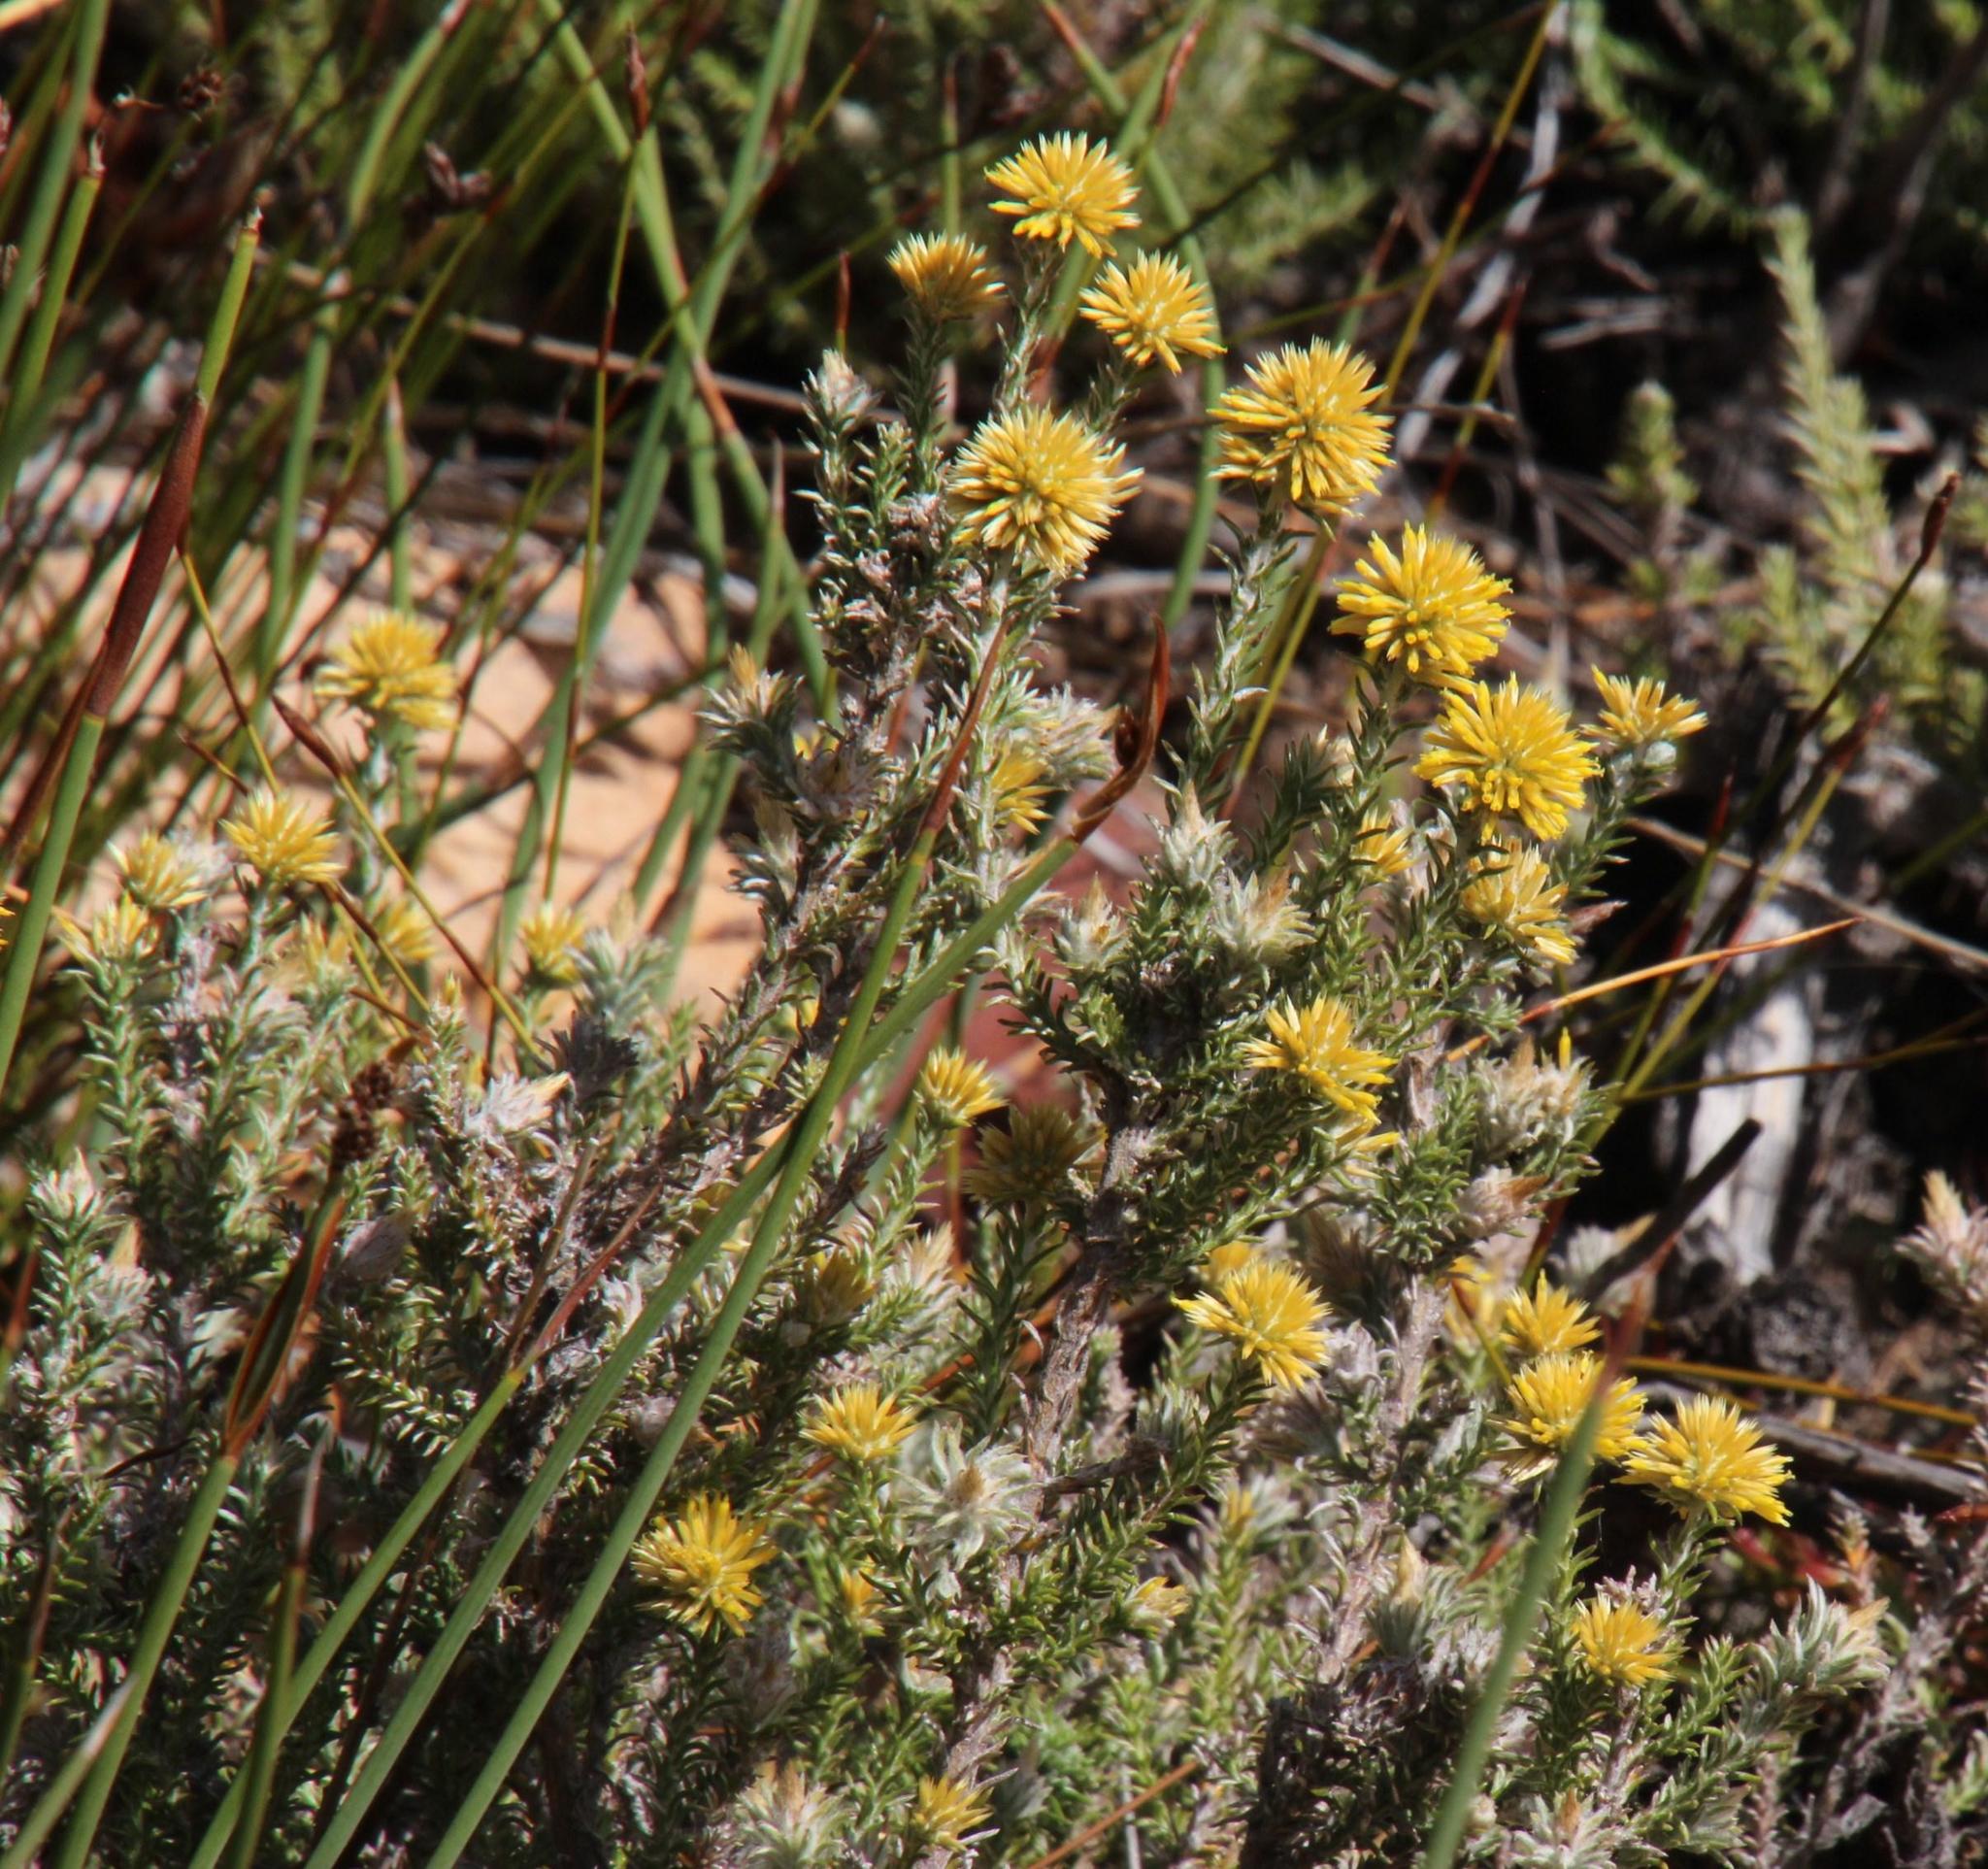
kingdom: Plantae
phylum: Tracheophyta
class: Magnoliopsida
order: Asterales
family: Asteraceae
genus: Seriphium
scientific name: Seriphium spirale
